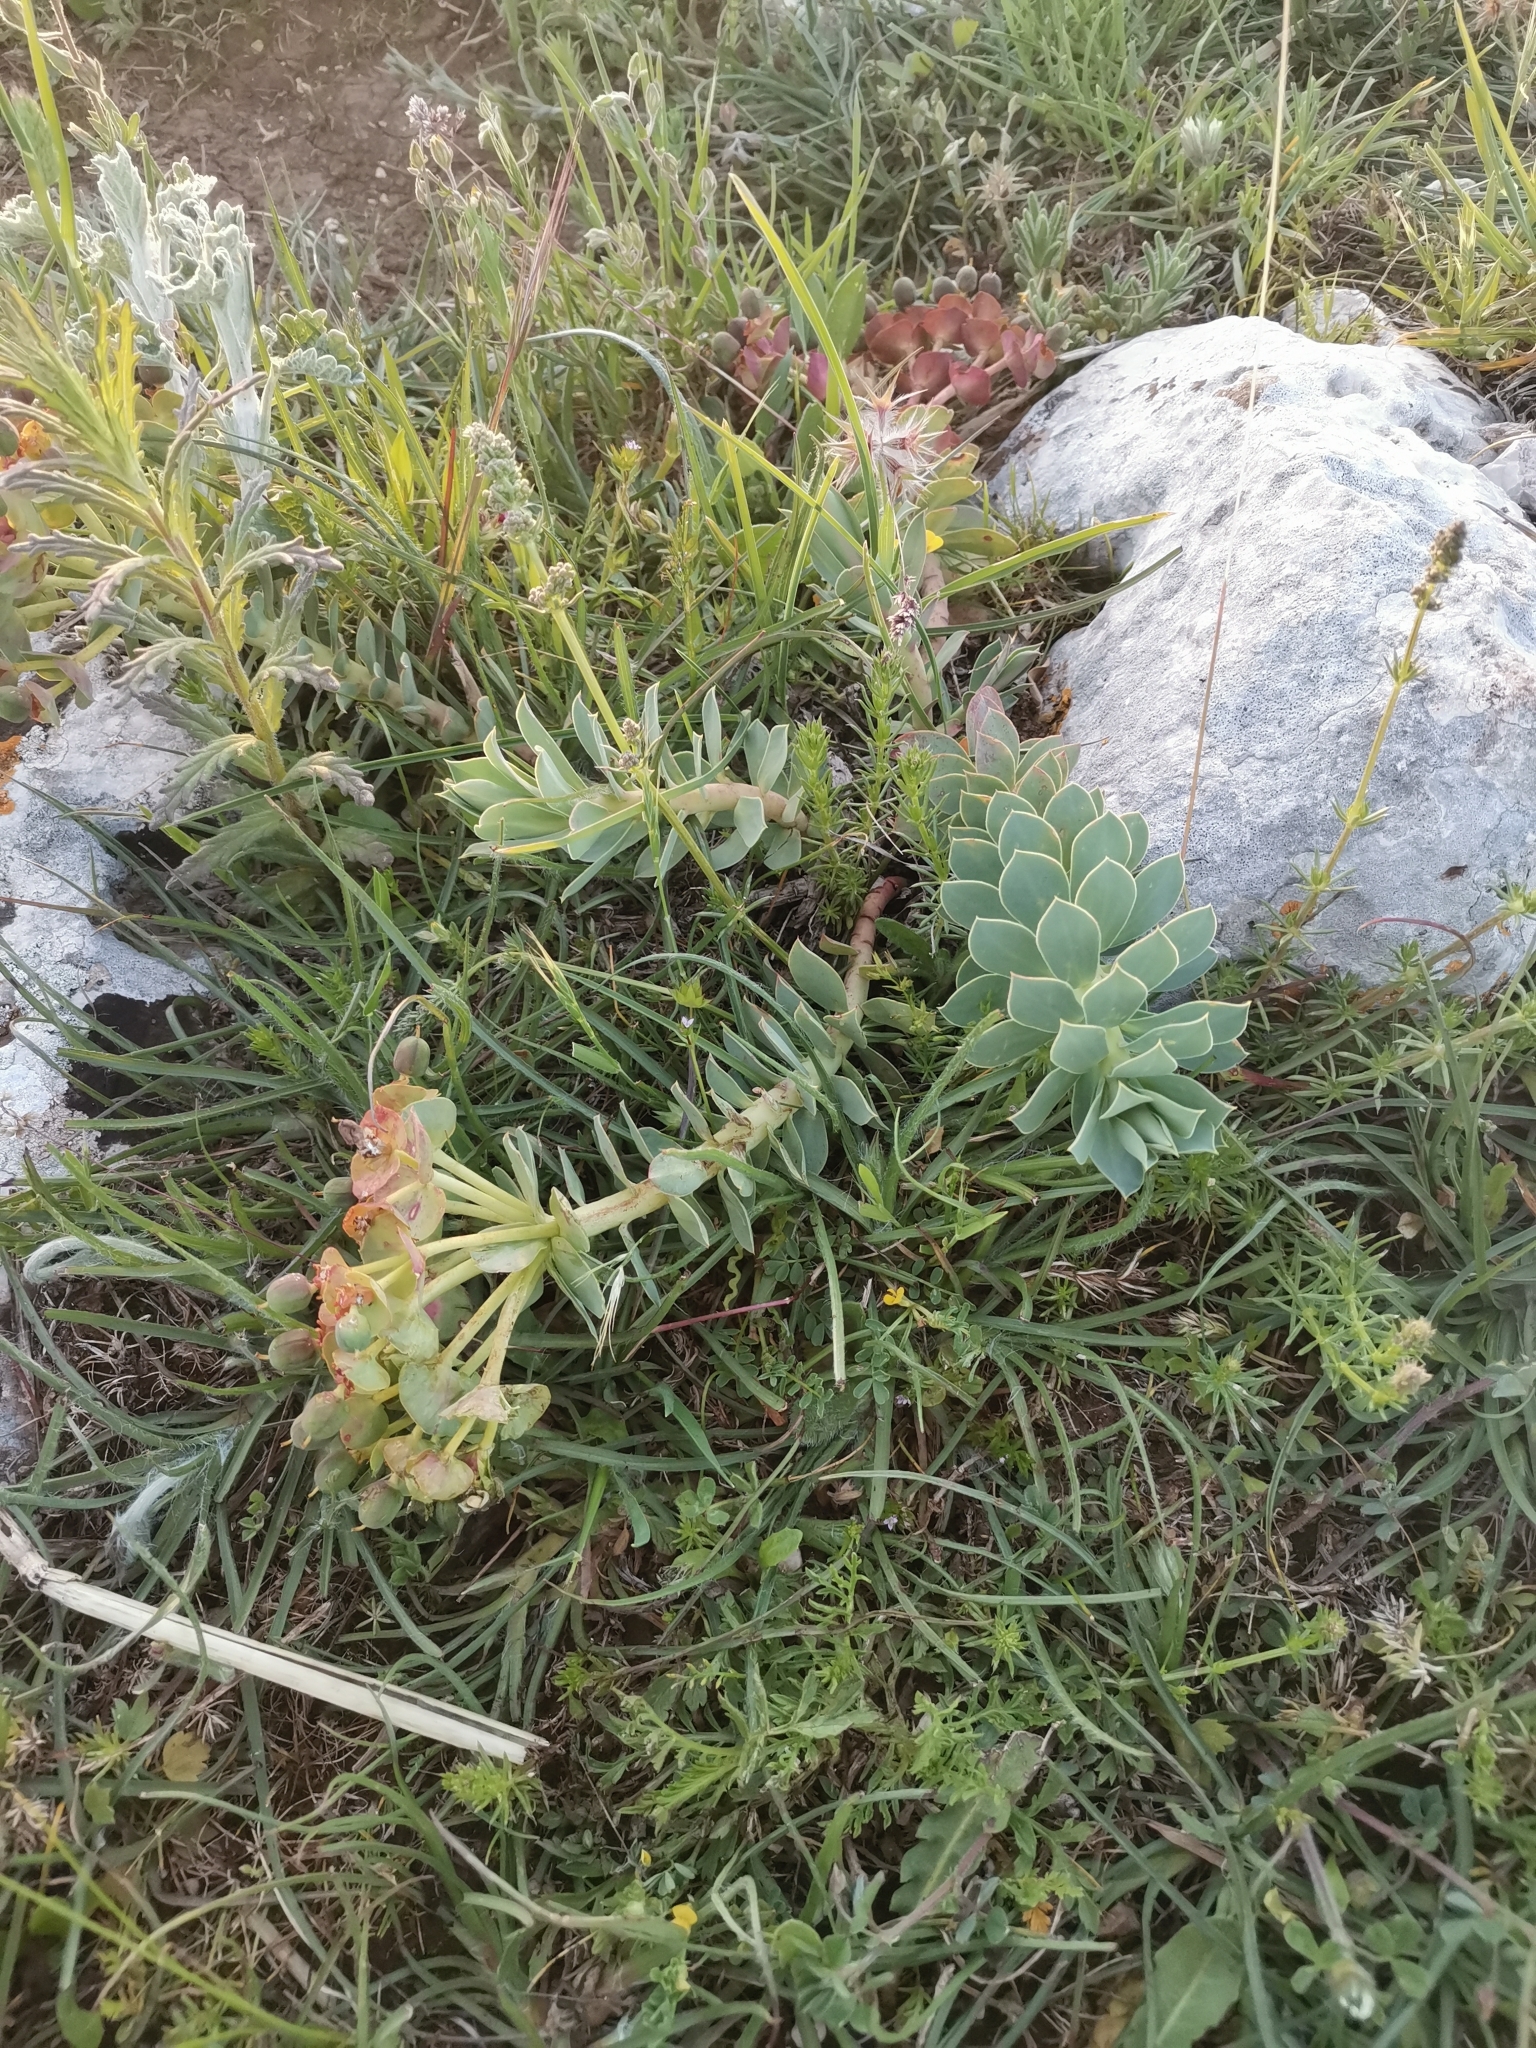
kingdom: Plantae
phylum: Tracheophyta
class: Magnoliopsida
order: Malpighiales
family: Euphorbiaceae
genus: Euphorbia
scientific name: Euphorbia myrsinites
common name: Myrtle spurge
